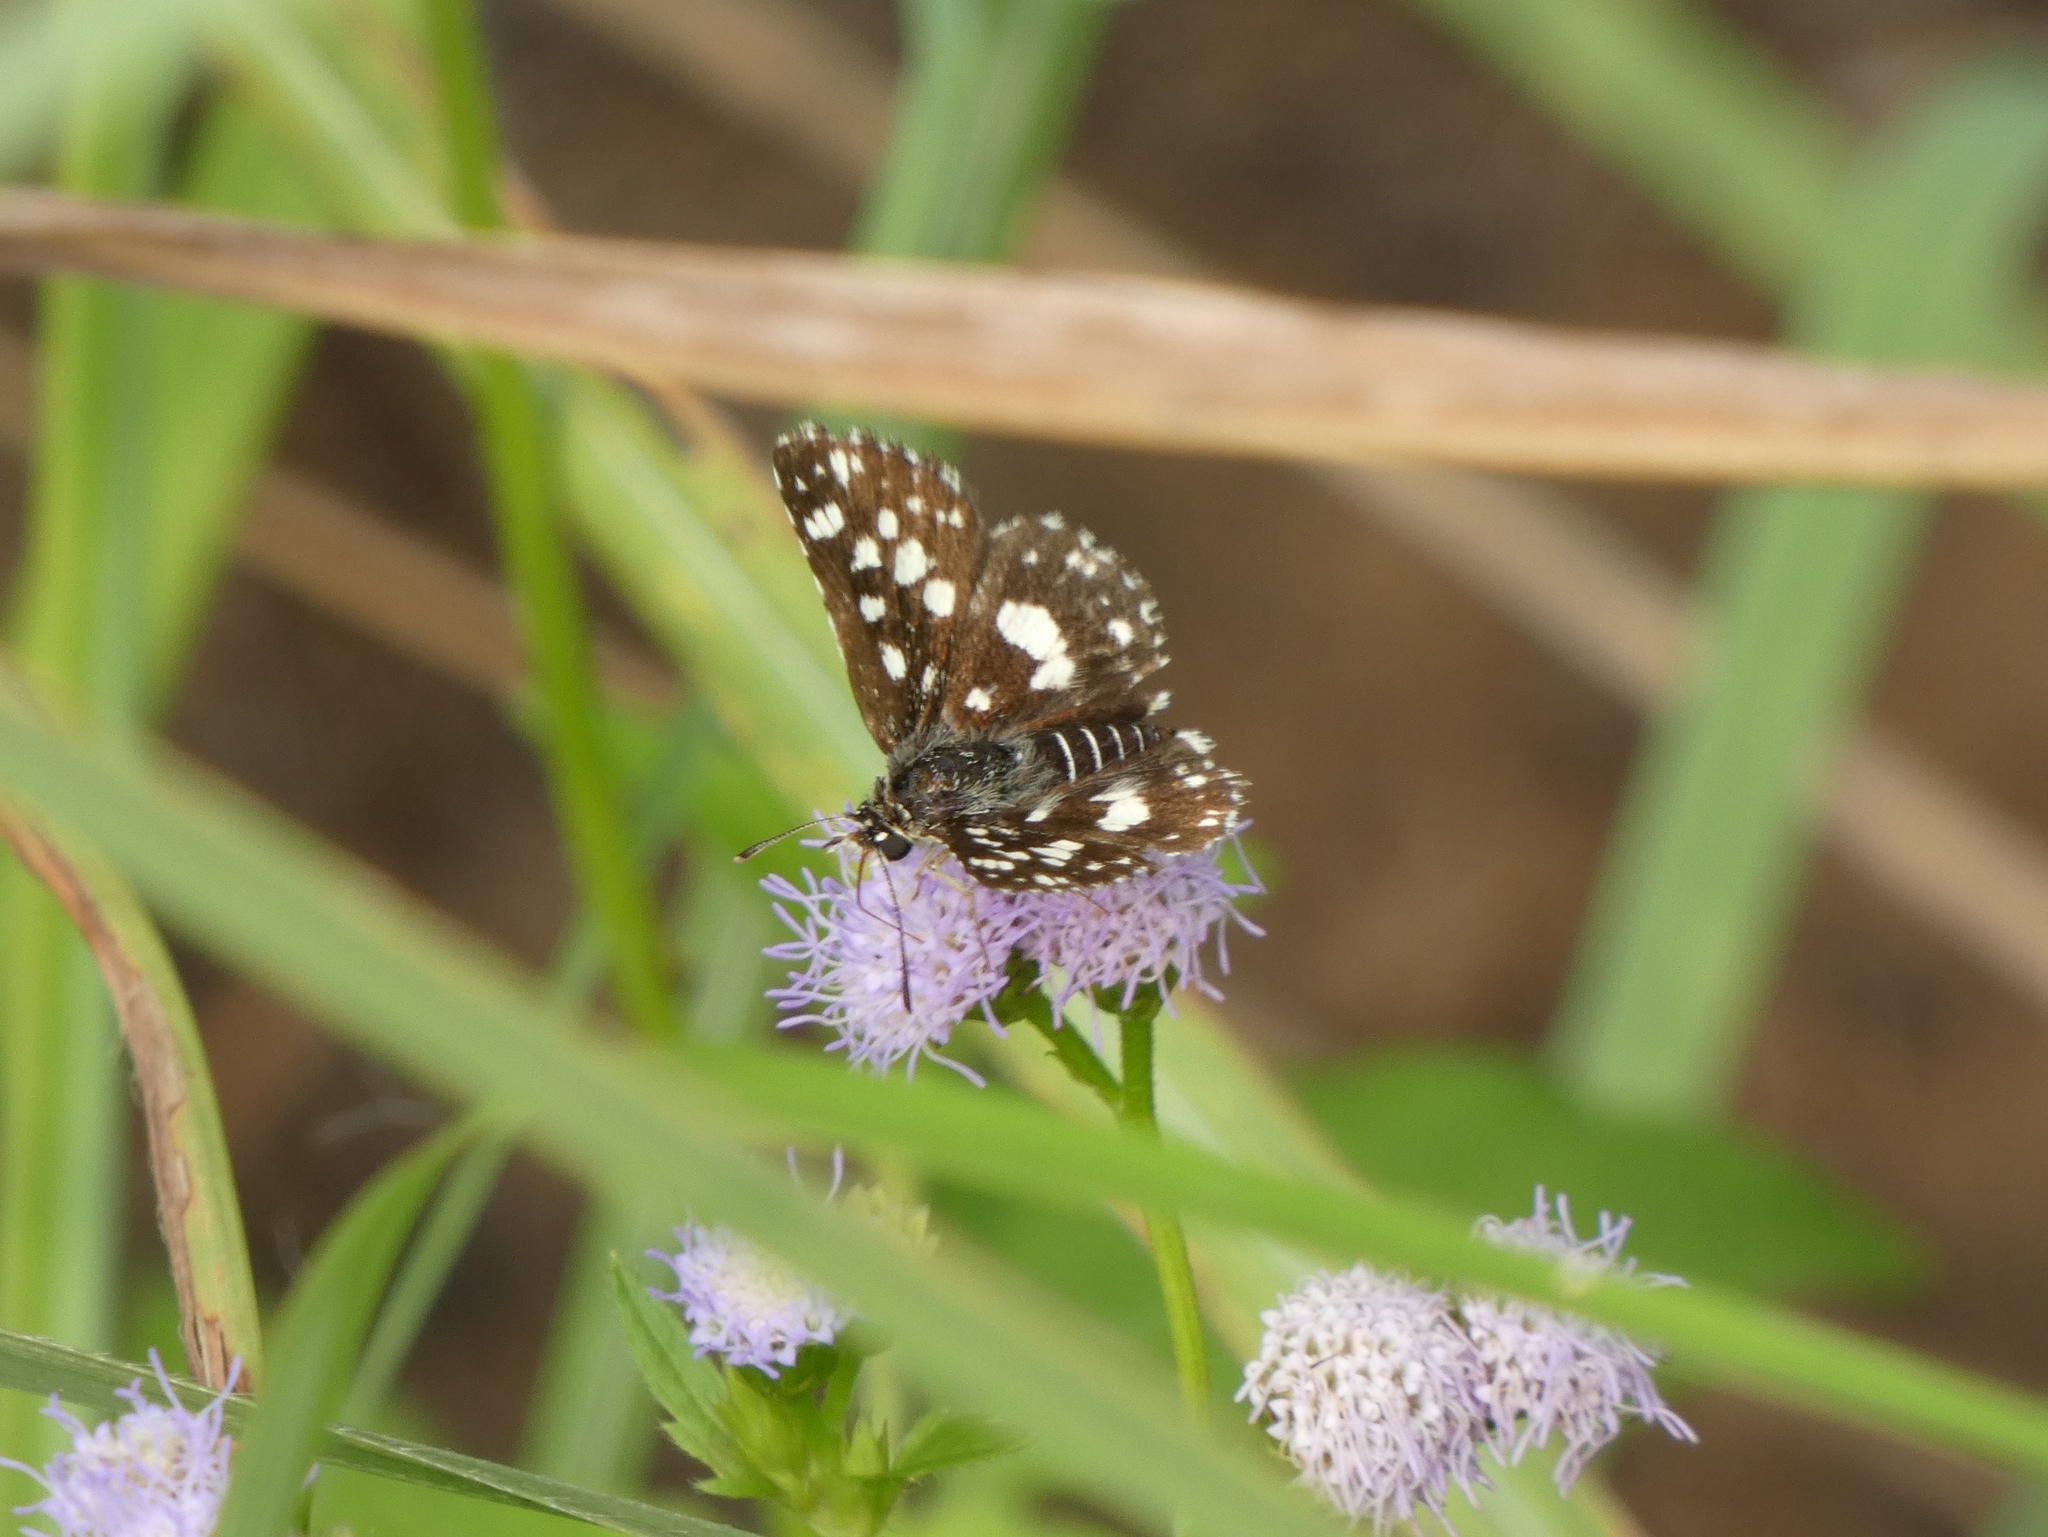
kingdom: Animalia
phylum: Arthropoda
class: Insecta
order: Lepidoptera
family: Hesperiidae
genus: Ernsta
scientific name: Ernsta
